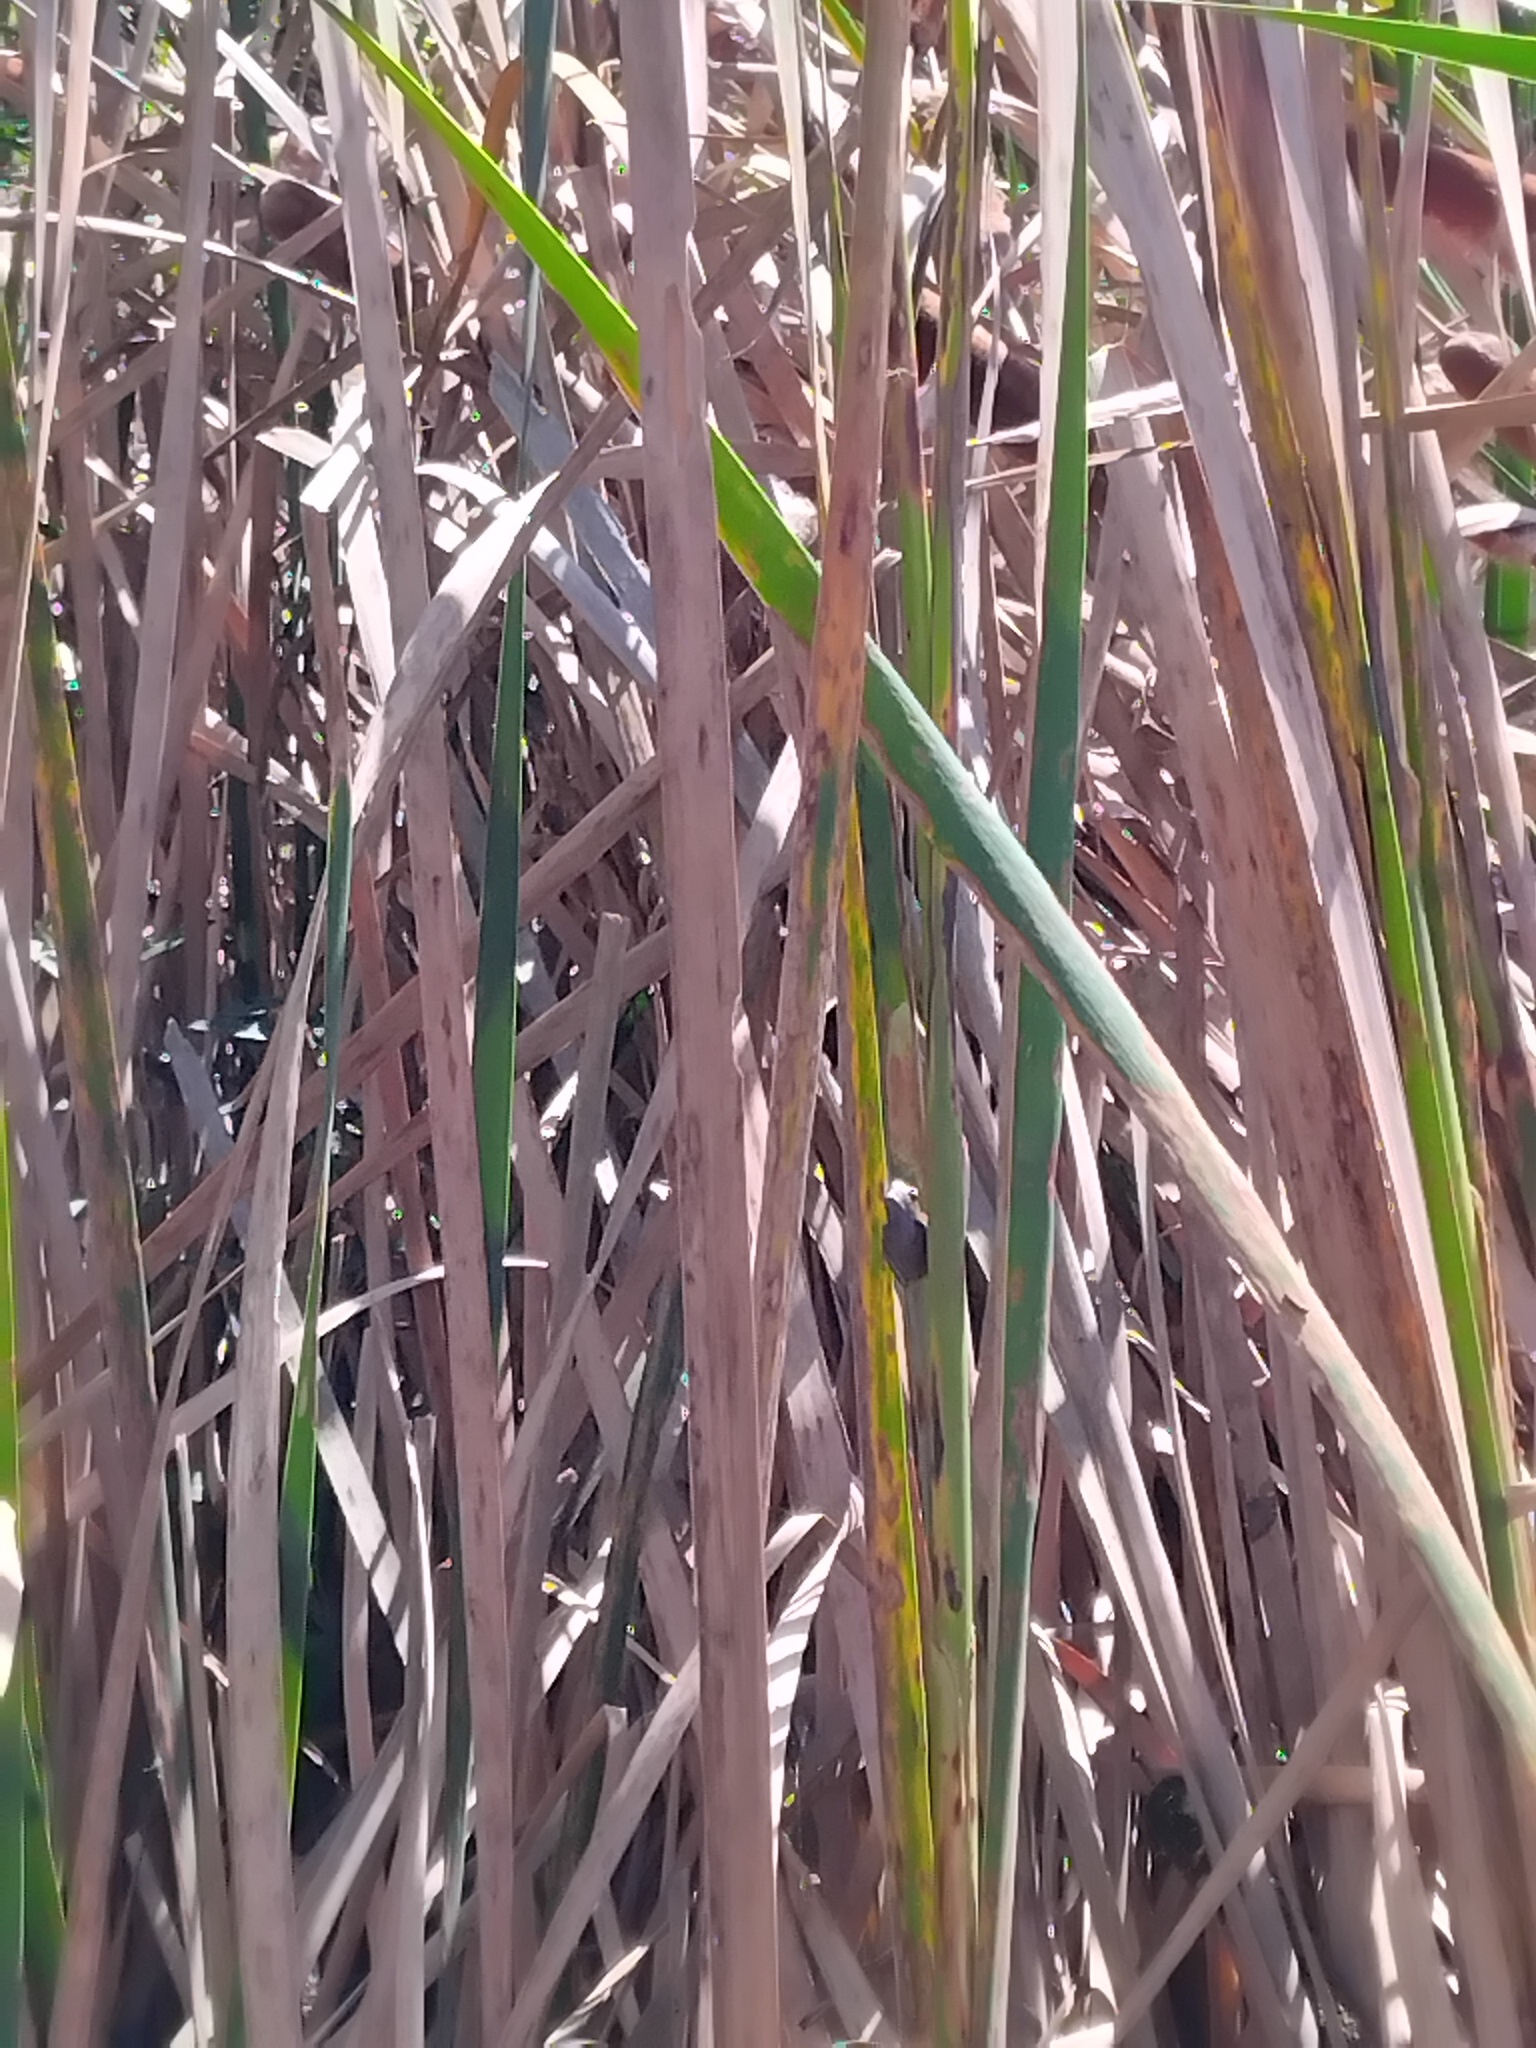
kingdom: Animalia
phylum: Chordata
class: Amphibia
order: Anura
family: Pelodryadidae
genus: Litoria
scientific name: Litoria fallax
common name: Eastern dwarf treefrog
